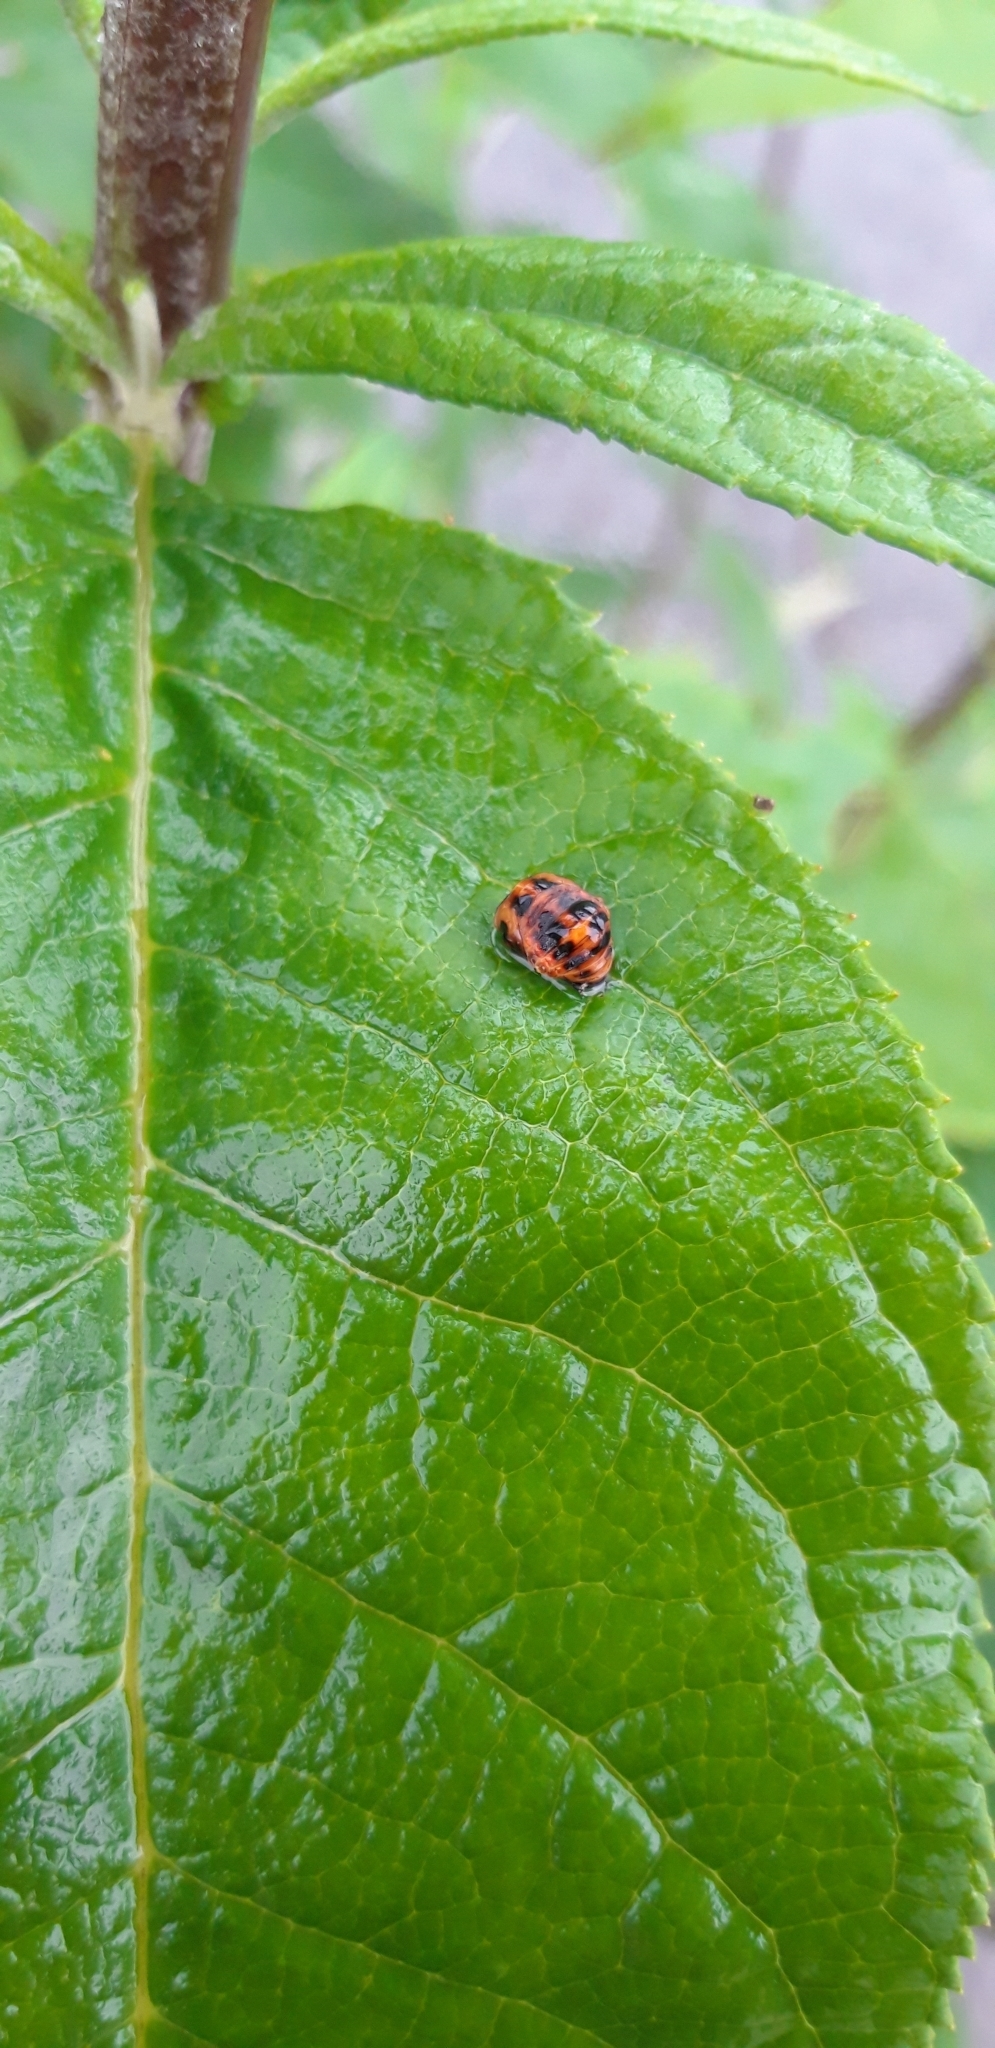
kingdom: Animalia
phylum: Arthropoda
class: Insecta
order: Coleoptera
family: Coccinellidae
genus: Harmonia
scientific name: Harmonia axyridis
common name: Harlequin ladybird
